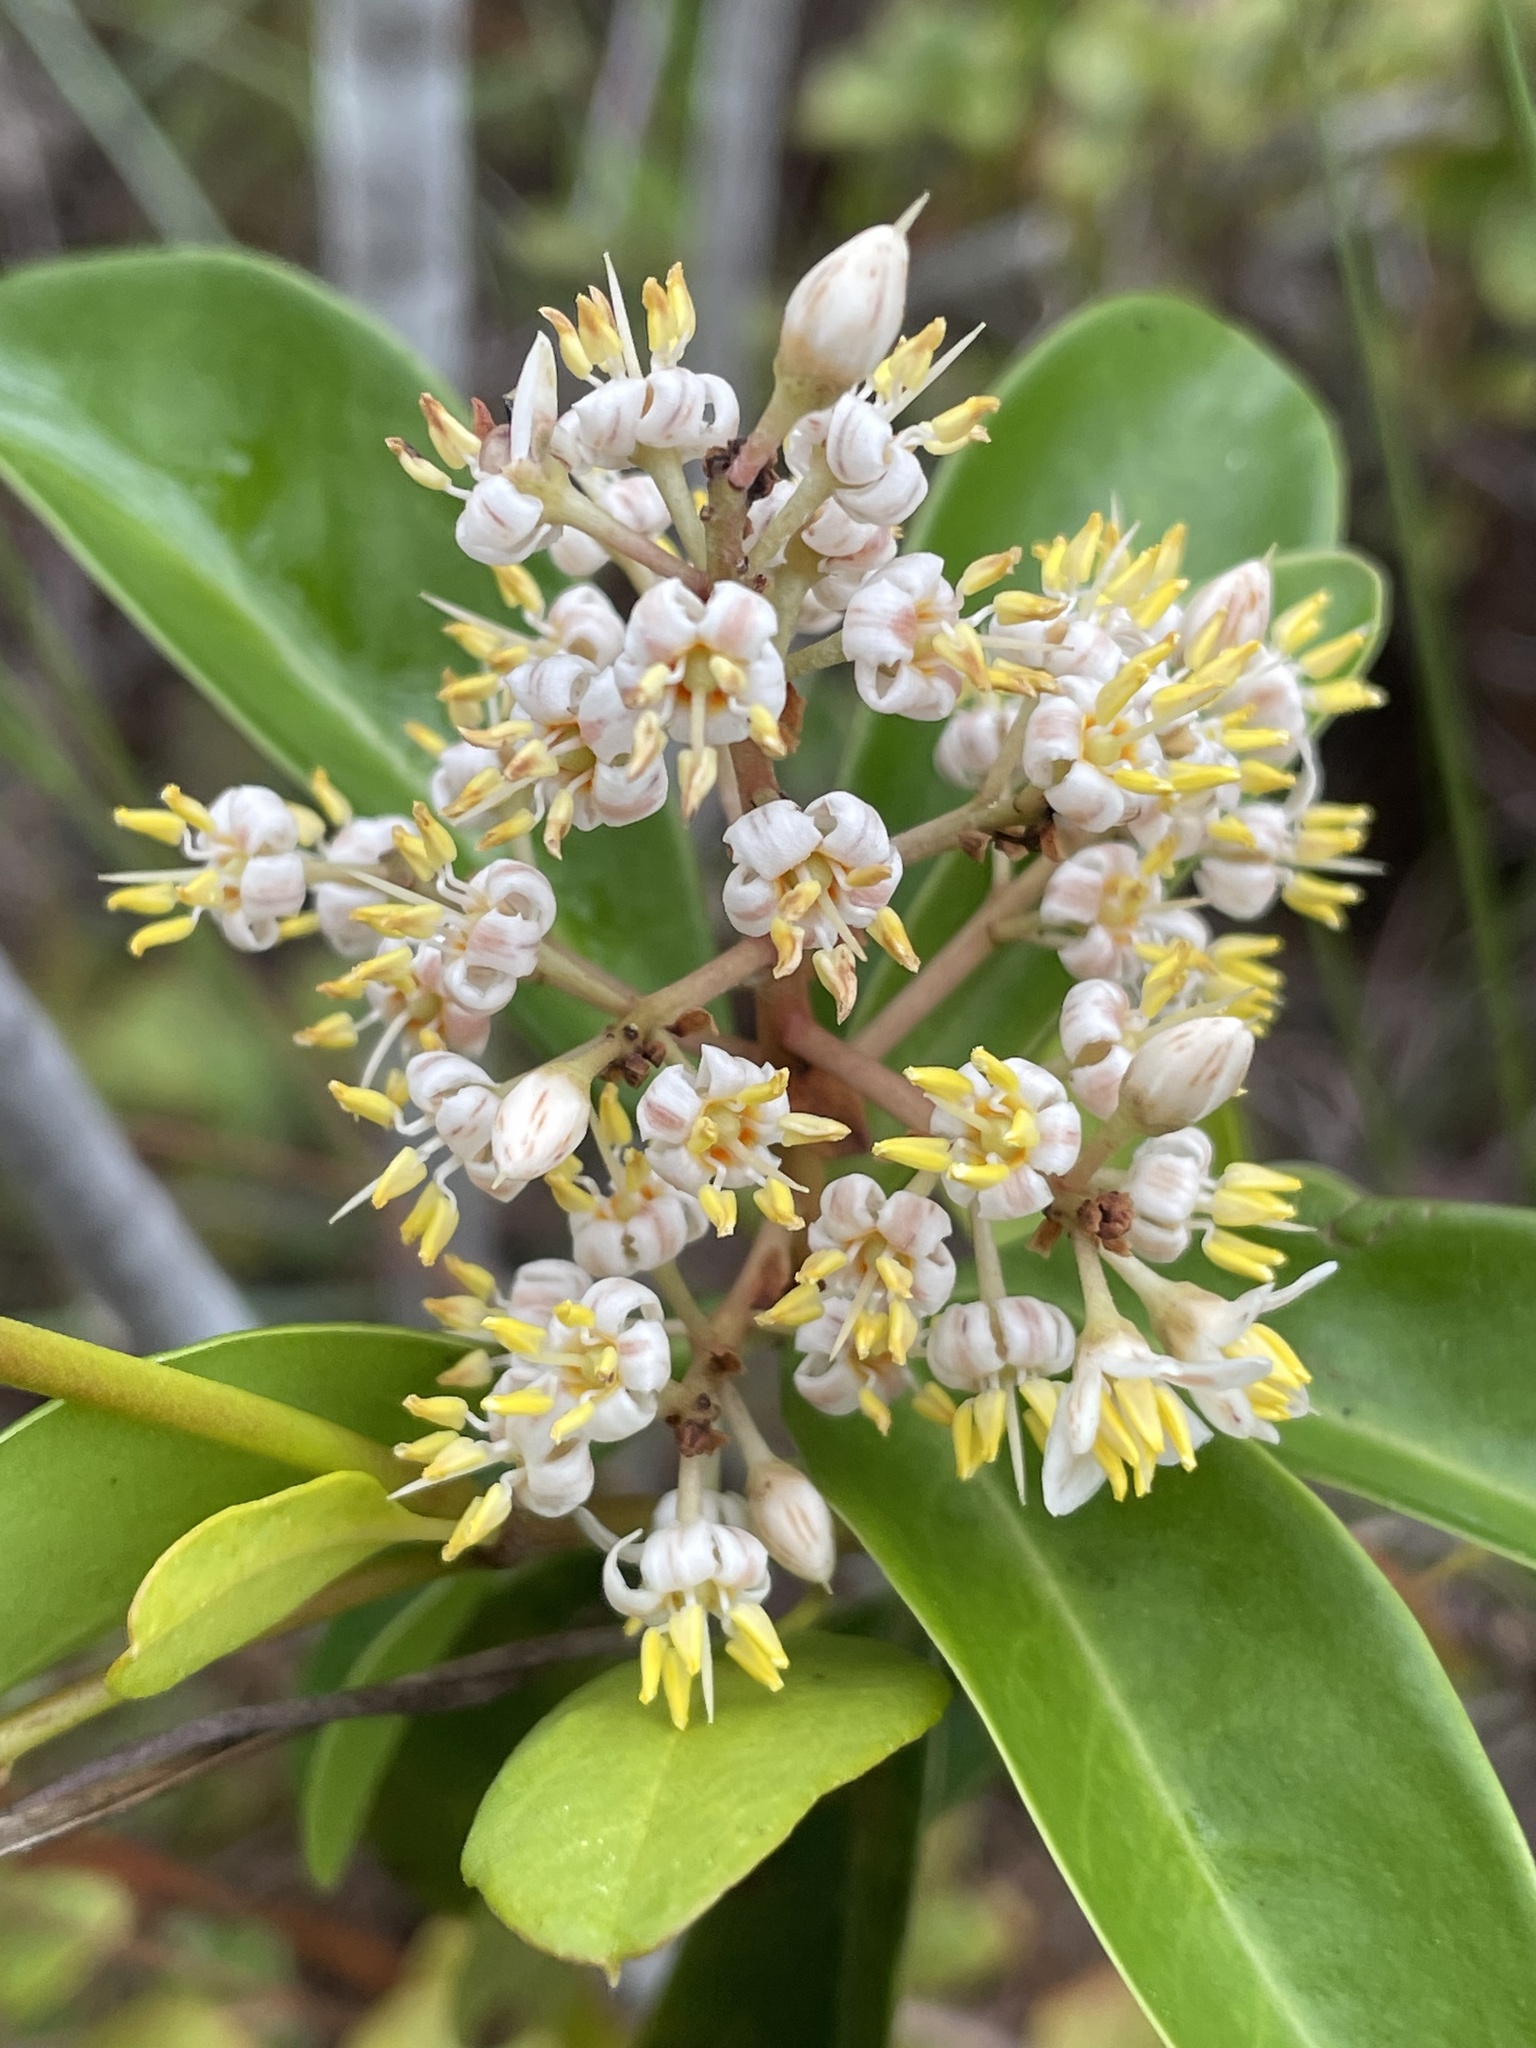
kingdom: Plantae
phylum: Tracheophyta
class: Magnoliopsida
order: Ericales
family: Primulaceae
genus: Ardisia
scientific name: Ardisia escallonioides
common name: Island marlberry
